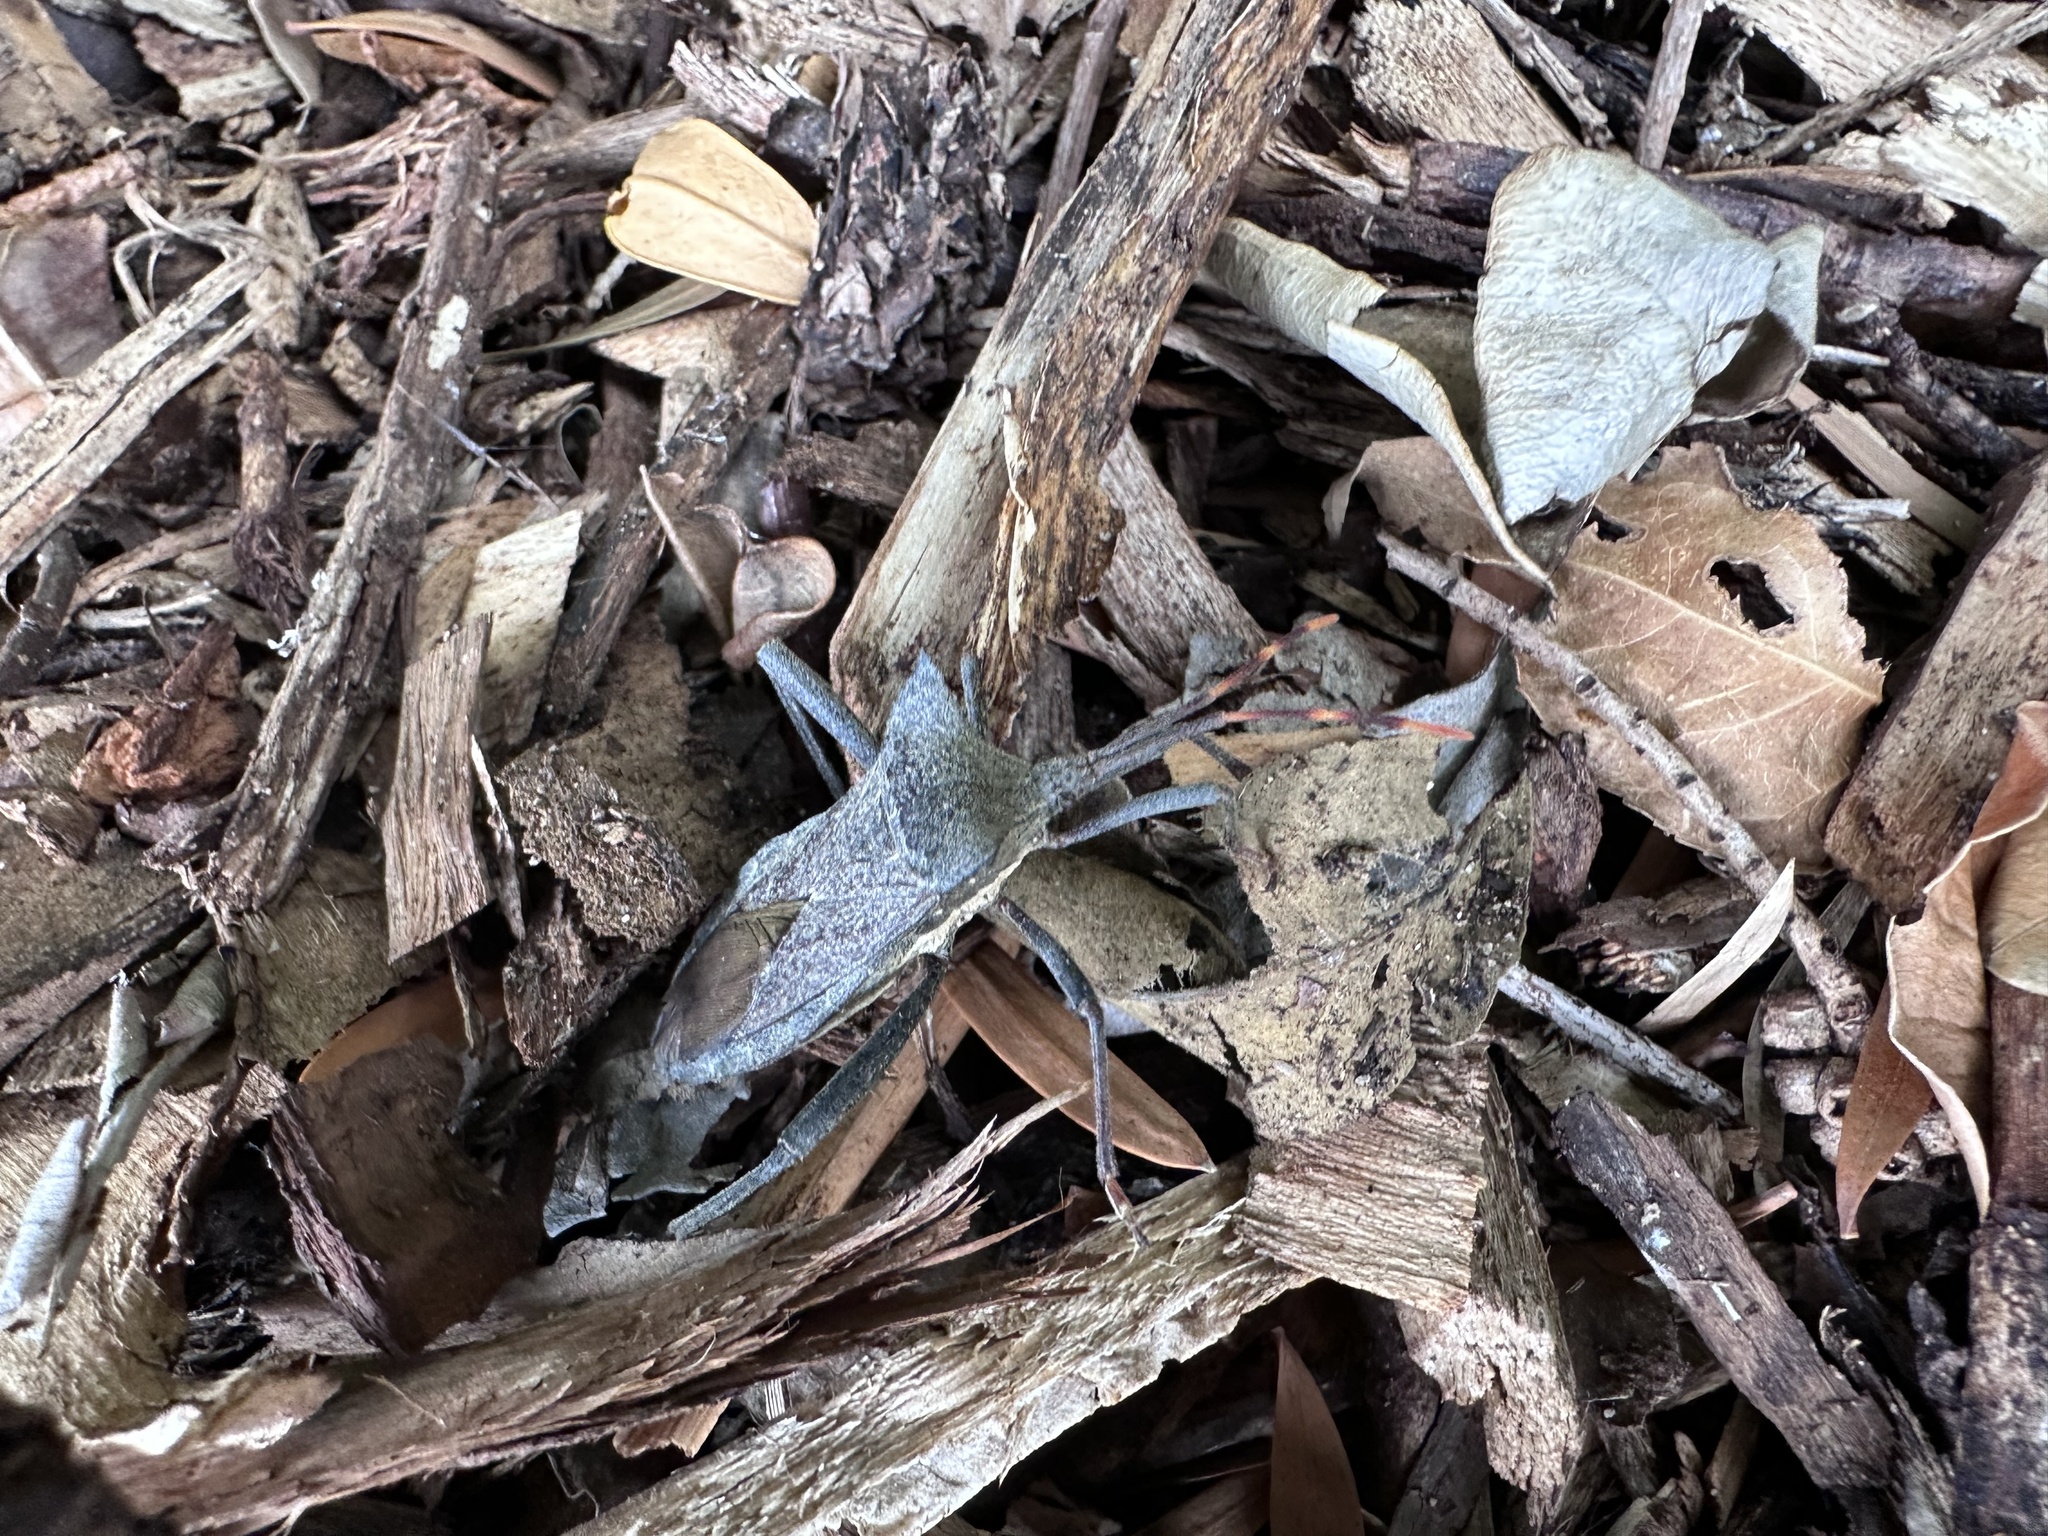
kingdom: Animalia
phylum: Arthropoda
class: Insecta
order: Hemiptera
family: Coreidae
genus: Elasmopoda
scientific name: Elasmopoda valga
